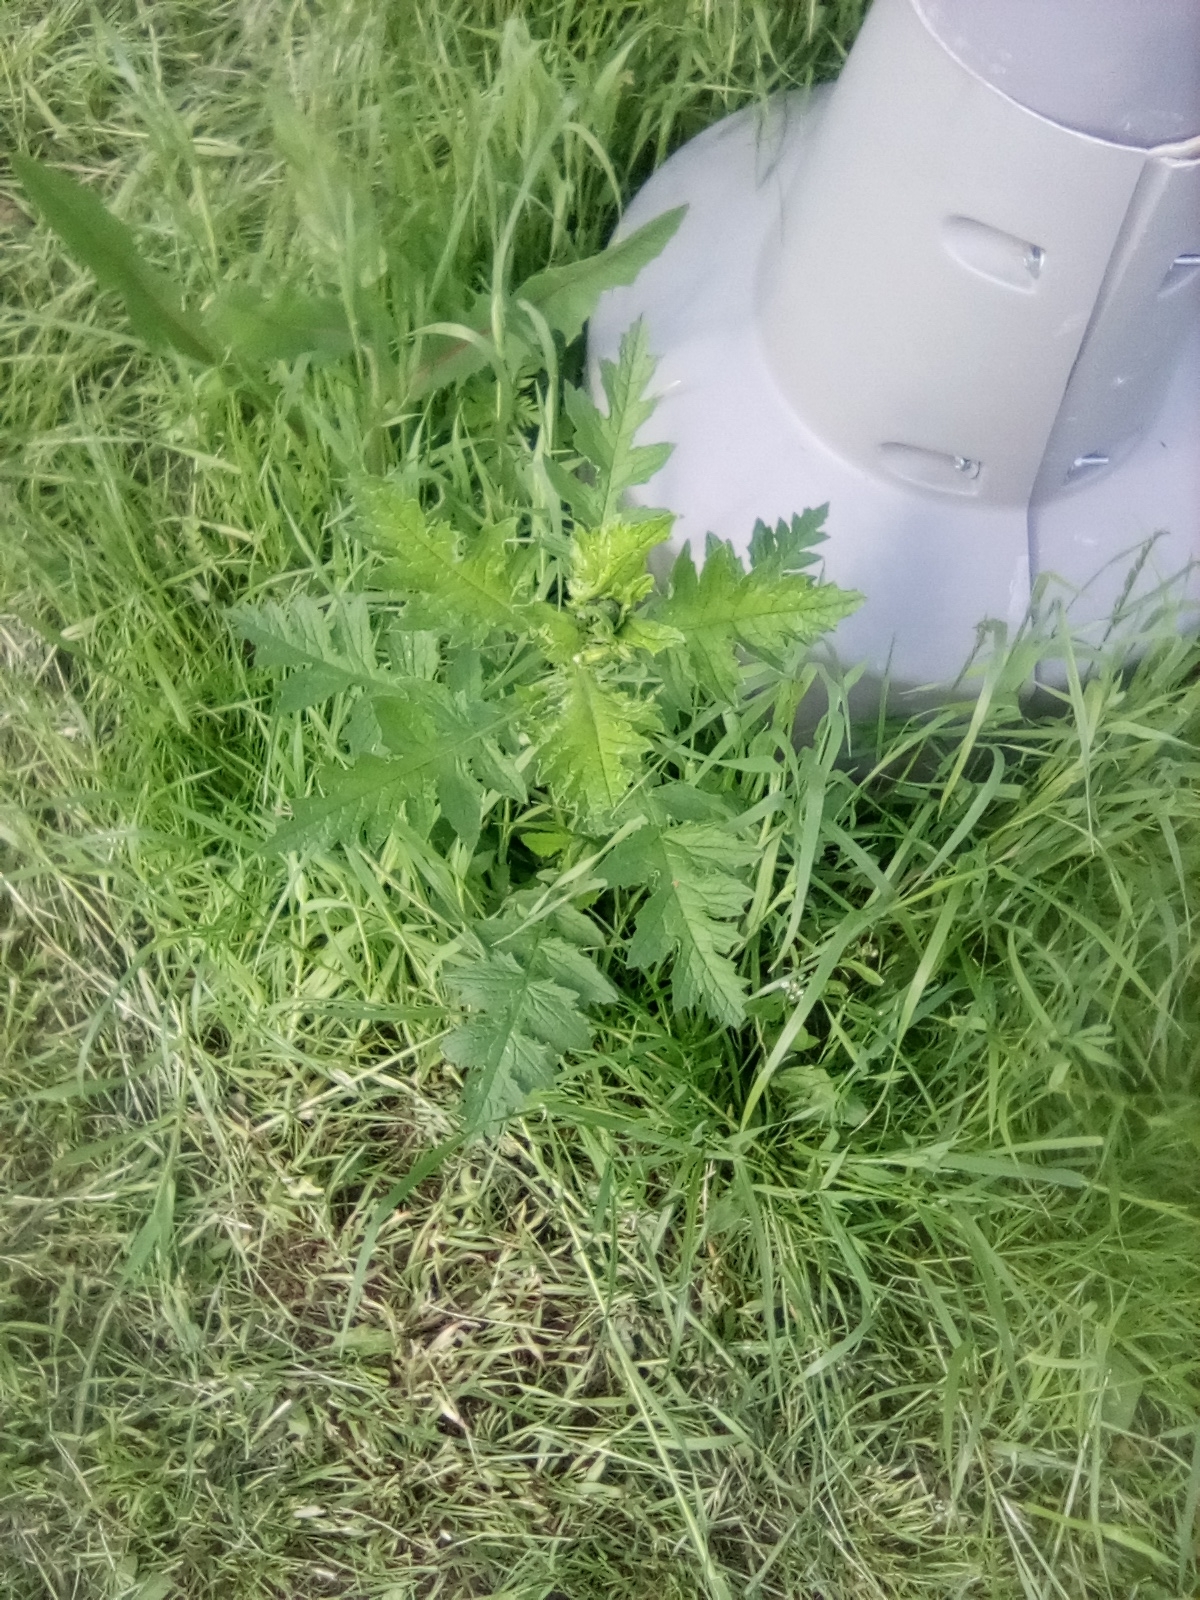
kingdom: Plantae
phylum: Tracheophyta
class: Magnoliopsida
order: Asterales
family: Asteraceae
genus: Carduus
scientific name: Carduus crispus
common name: Welted thistle
